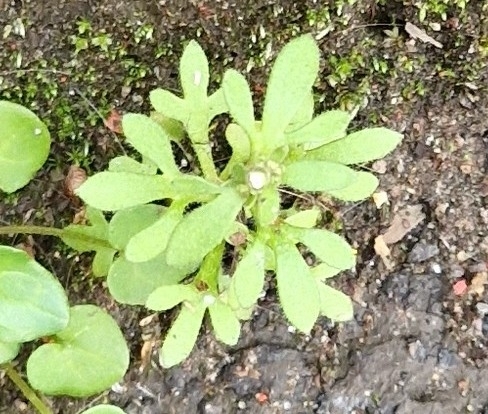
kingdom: Plantae
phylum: Tracheophyta
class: Magnoliopsida
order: Saxifragales
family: Saxifragaceae
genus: Saxifraga
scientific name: Saxifraga tridactylites
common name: Rue-leaved saxifrage
